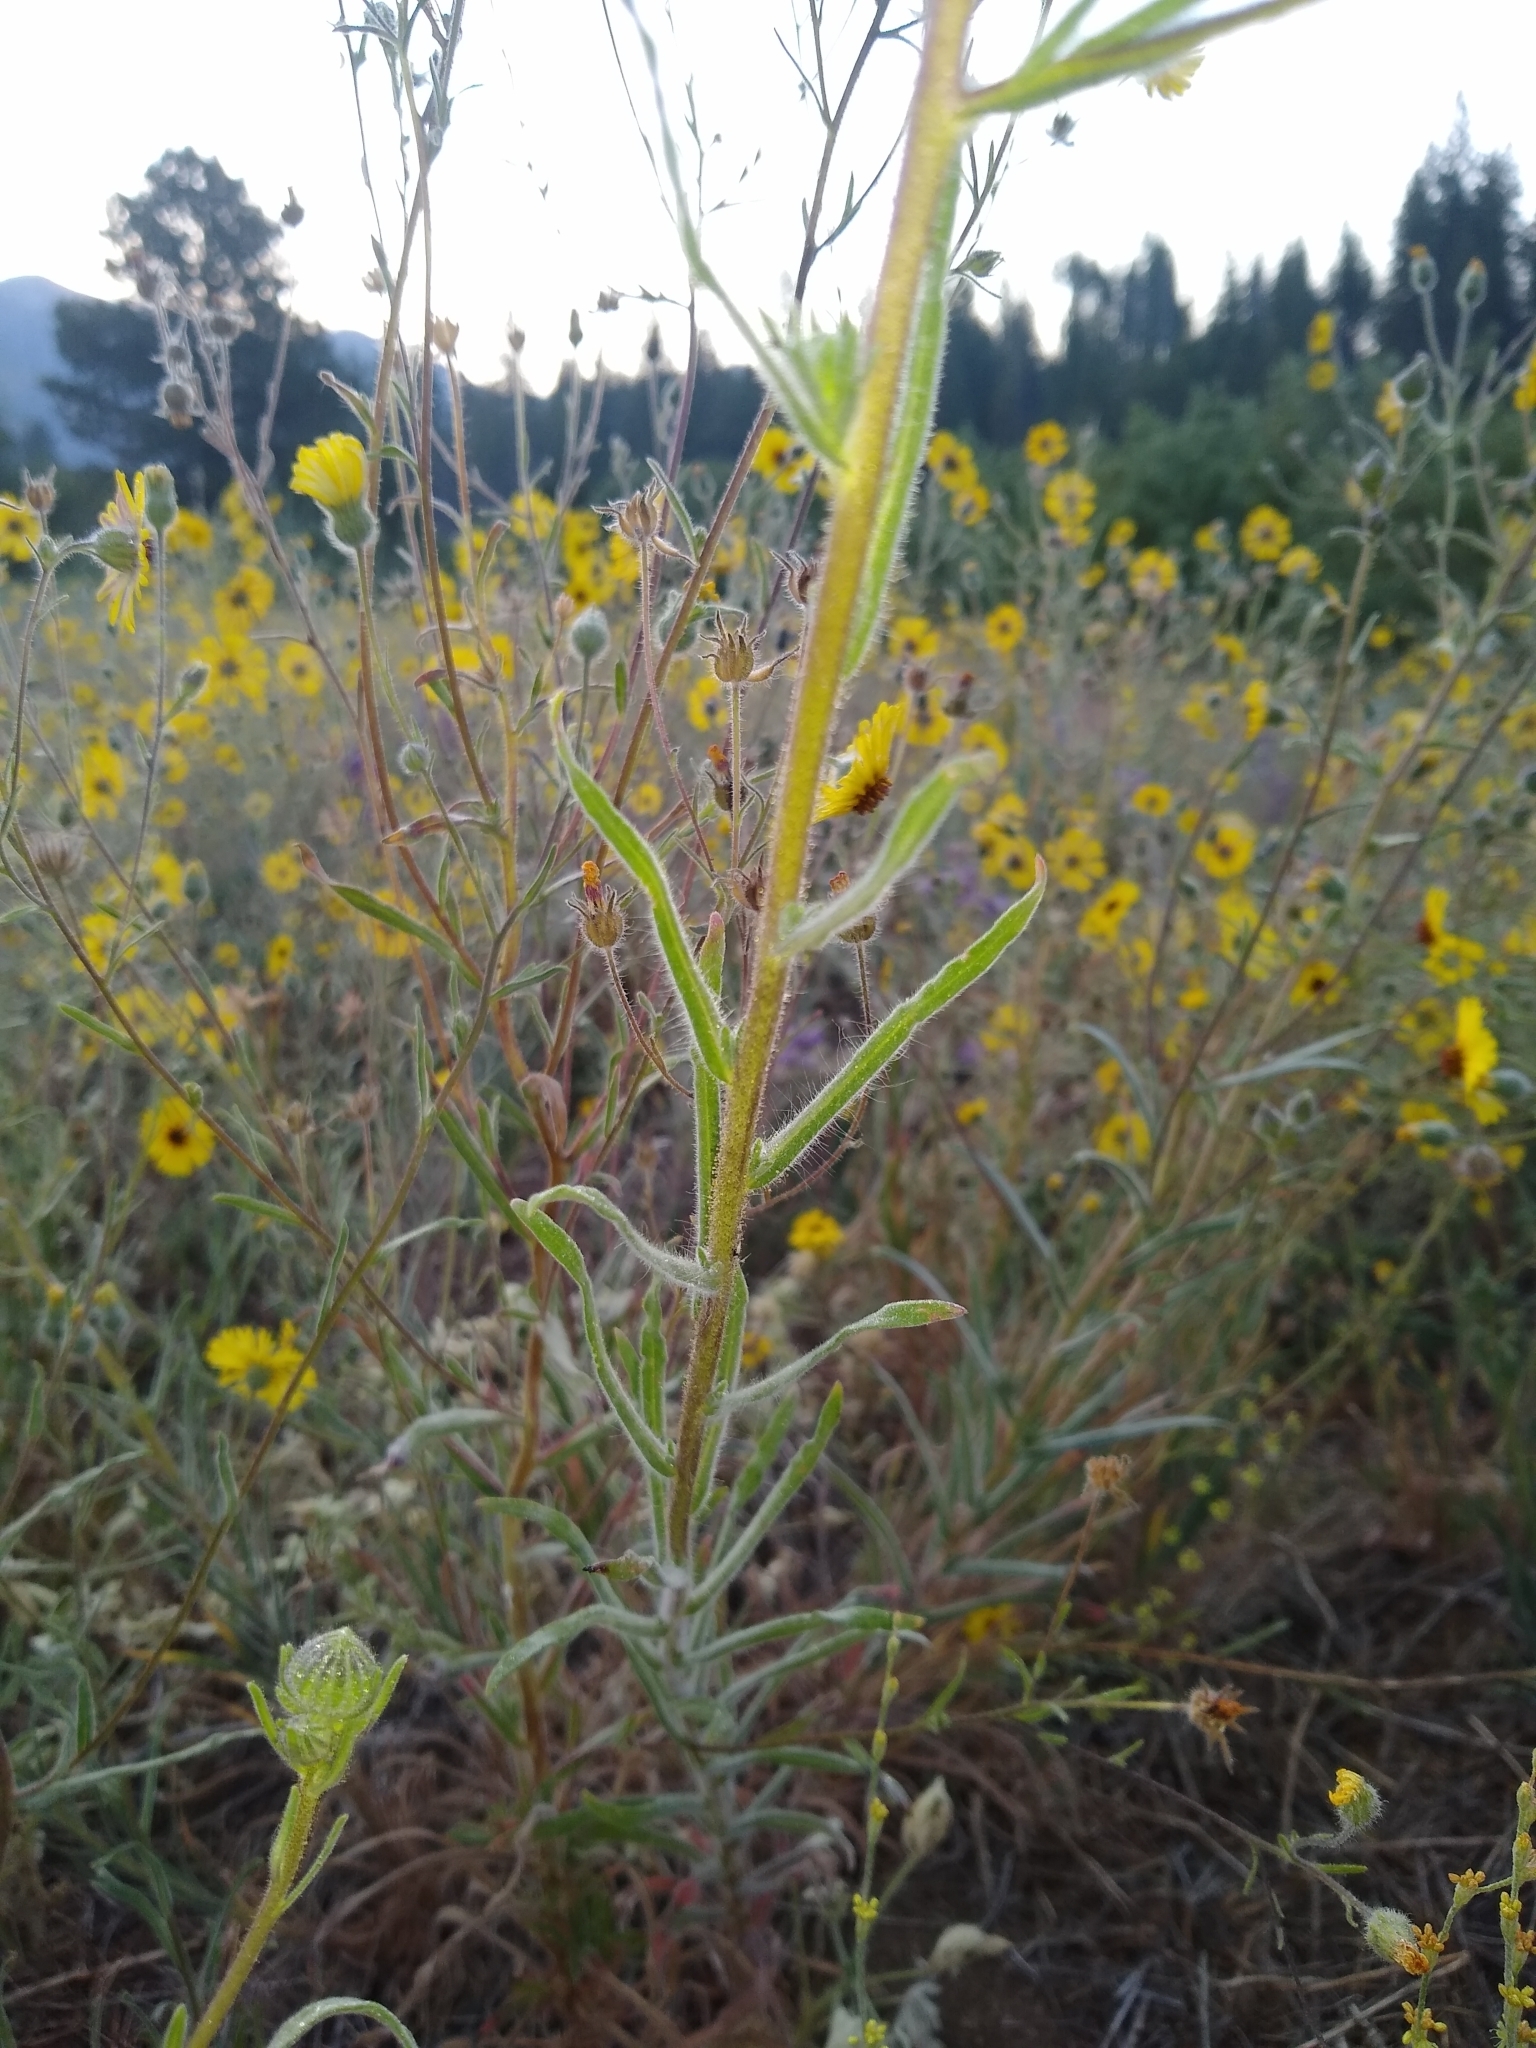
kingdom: Plantae
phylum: Tracheophyta
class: Magnoliopsida
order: Asterales
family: Asteraceae
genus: Achillea
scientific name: Achillea millefolium
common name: Yarrow
